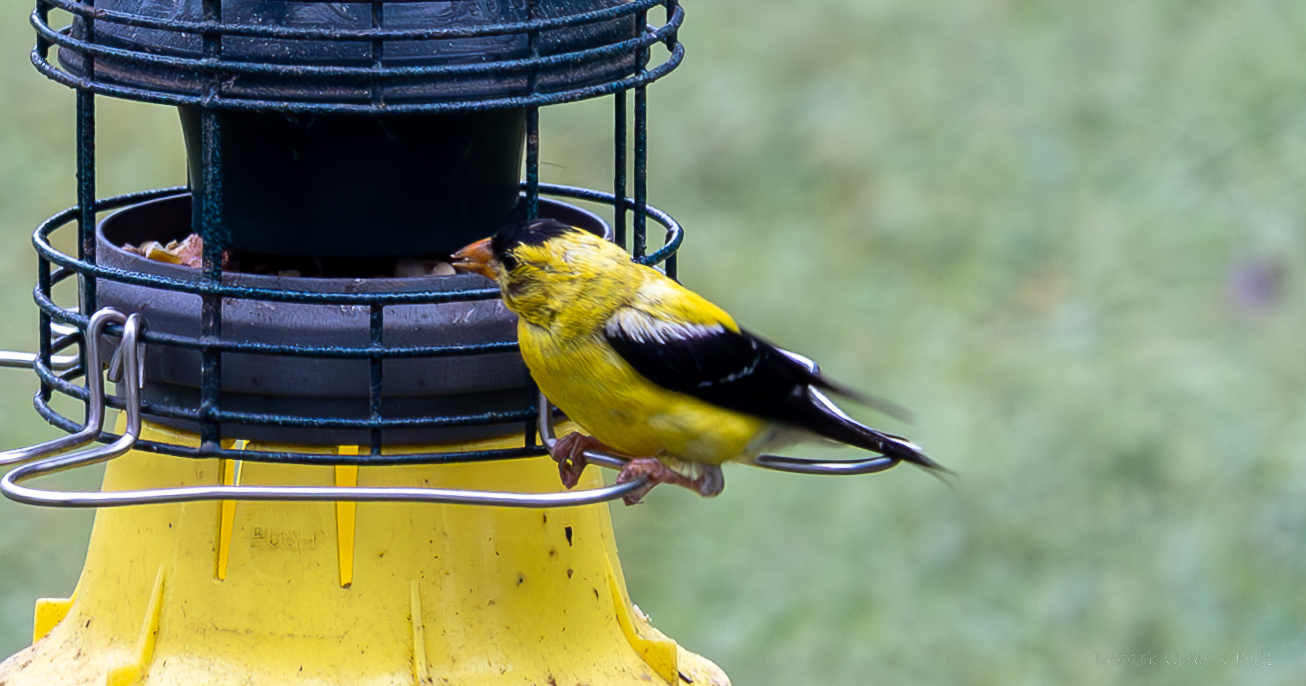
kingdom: Animalia
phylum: Chordata
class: Aves
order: Passeriformes
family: Fringillidae
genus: Spinus
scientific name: Spinus tristis
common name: American goldfinch
